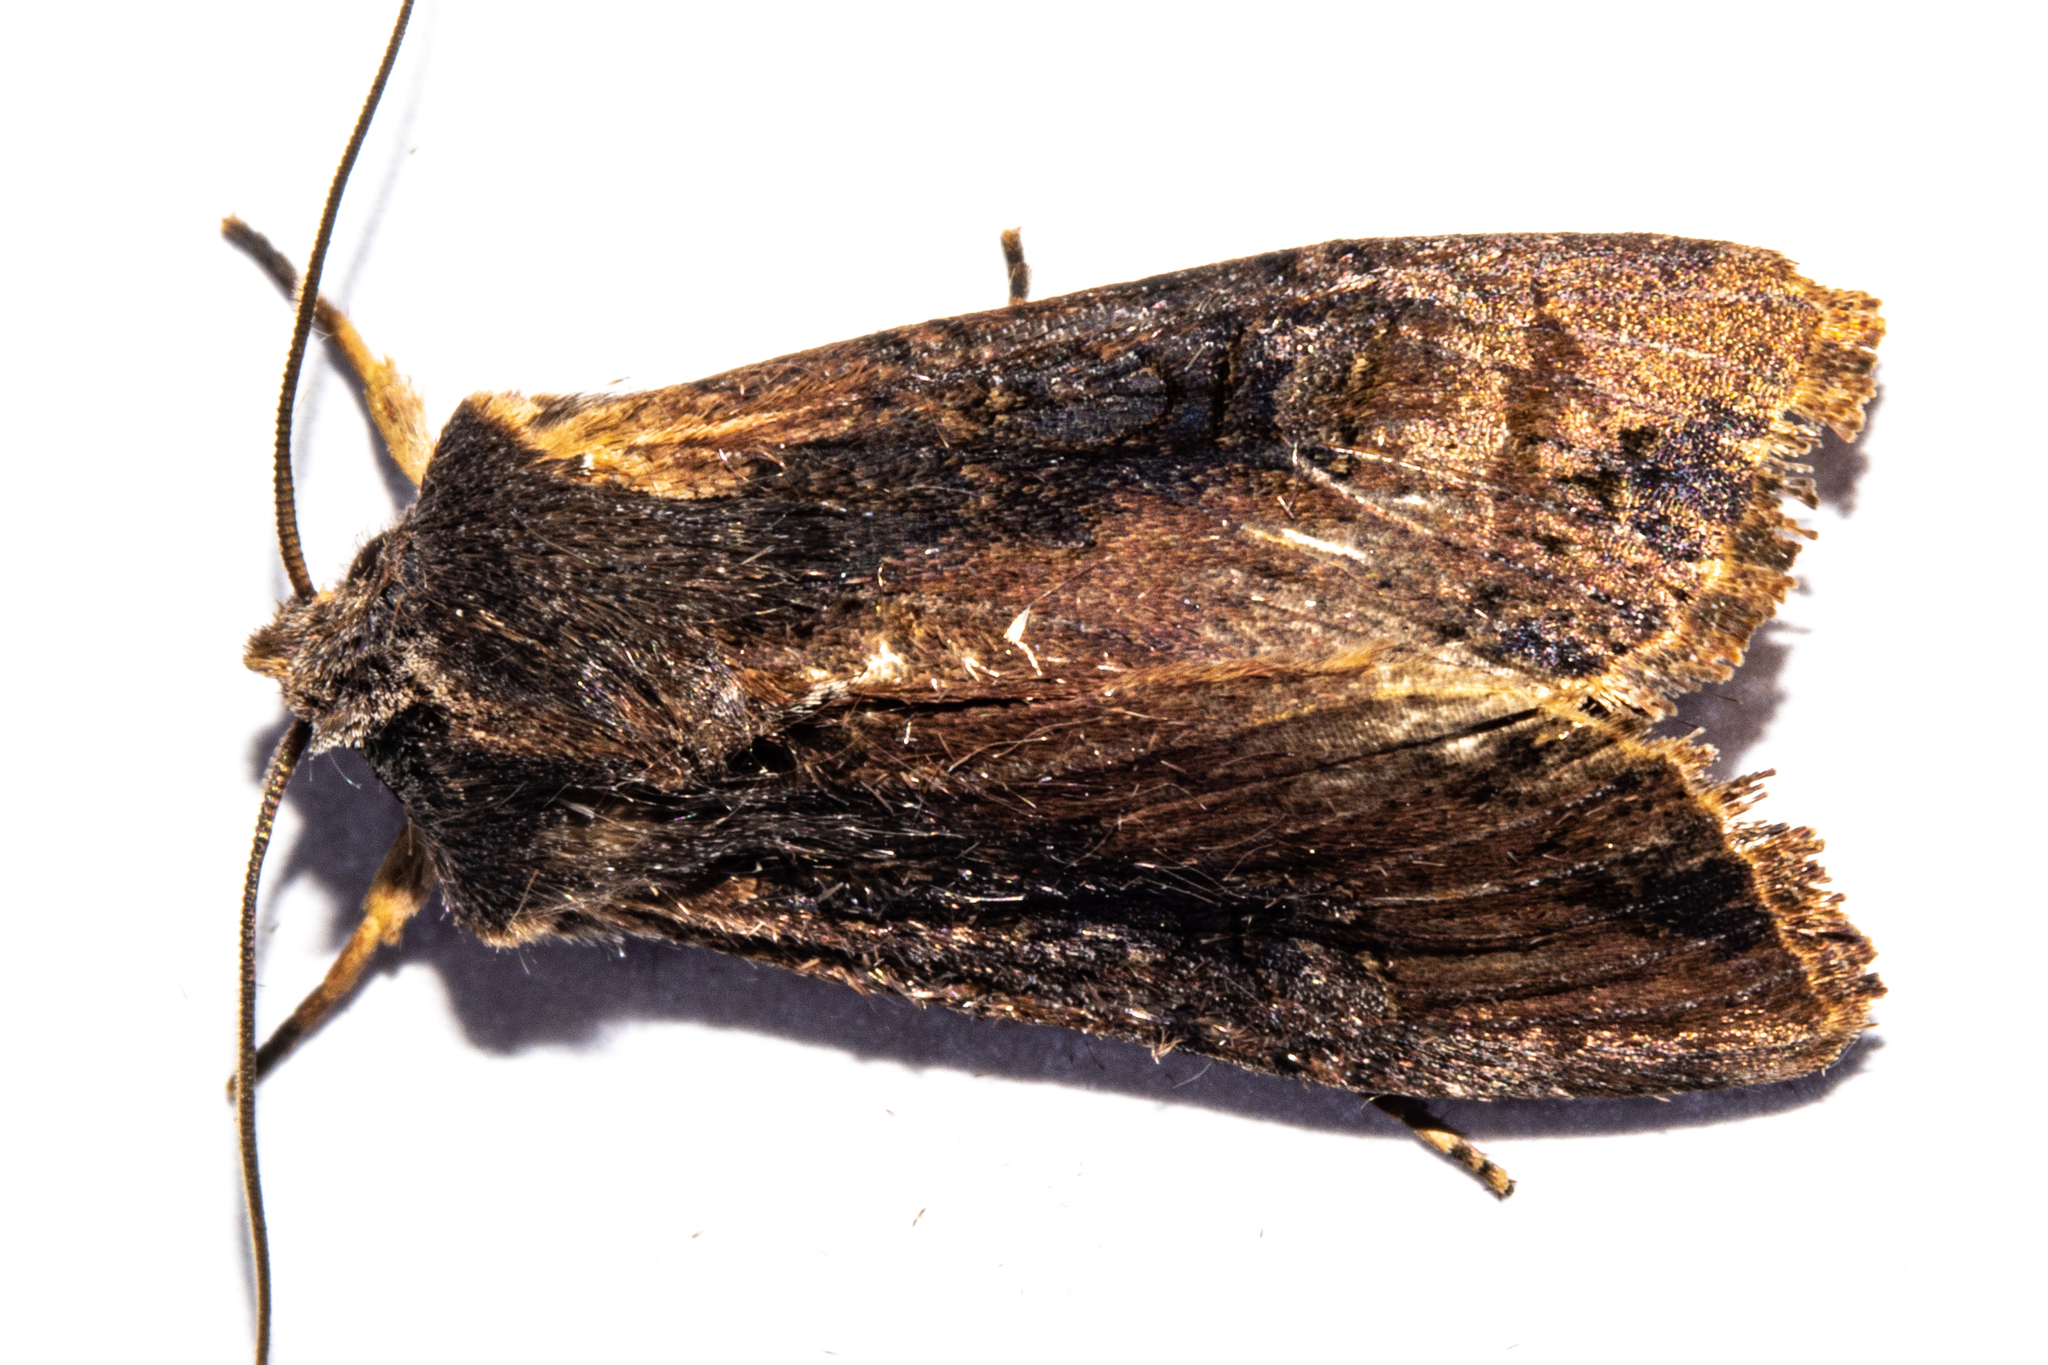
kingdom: Animalia
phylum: Arthropoda
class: Insecta
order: Lepidoptera
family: Noctuidae
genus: Ichneutica
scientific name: Ichneutica omoplaca
